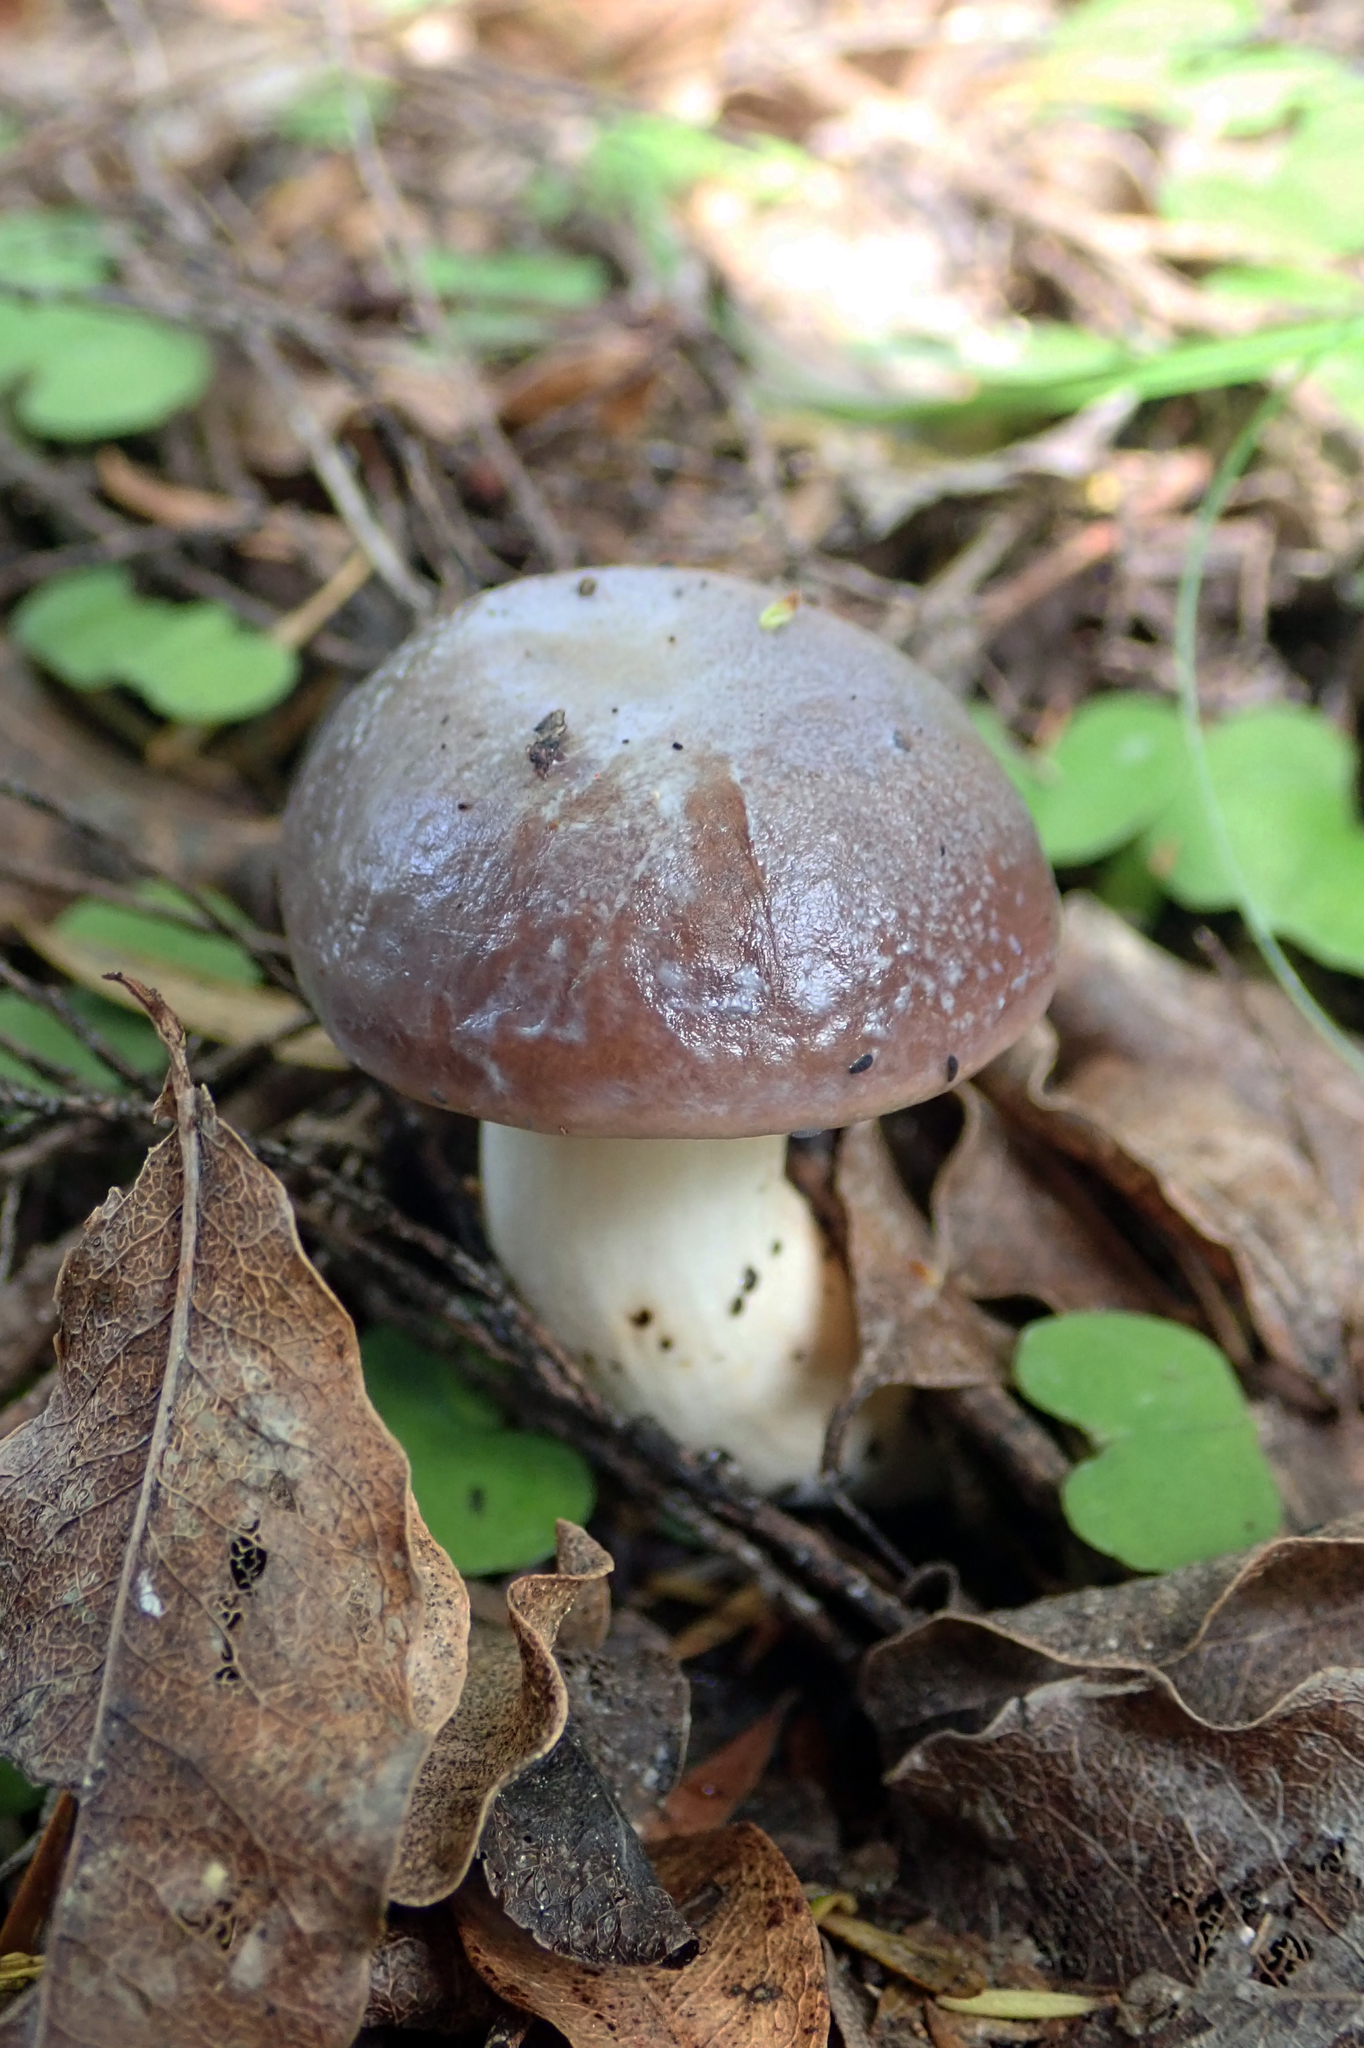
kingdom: Fungi
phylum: Basidiomycota
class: Agaricomycetes
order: Boletales
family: Boletaceae
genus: Fistulinella
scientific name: Fistulinella viscida
